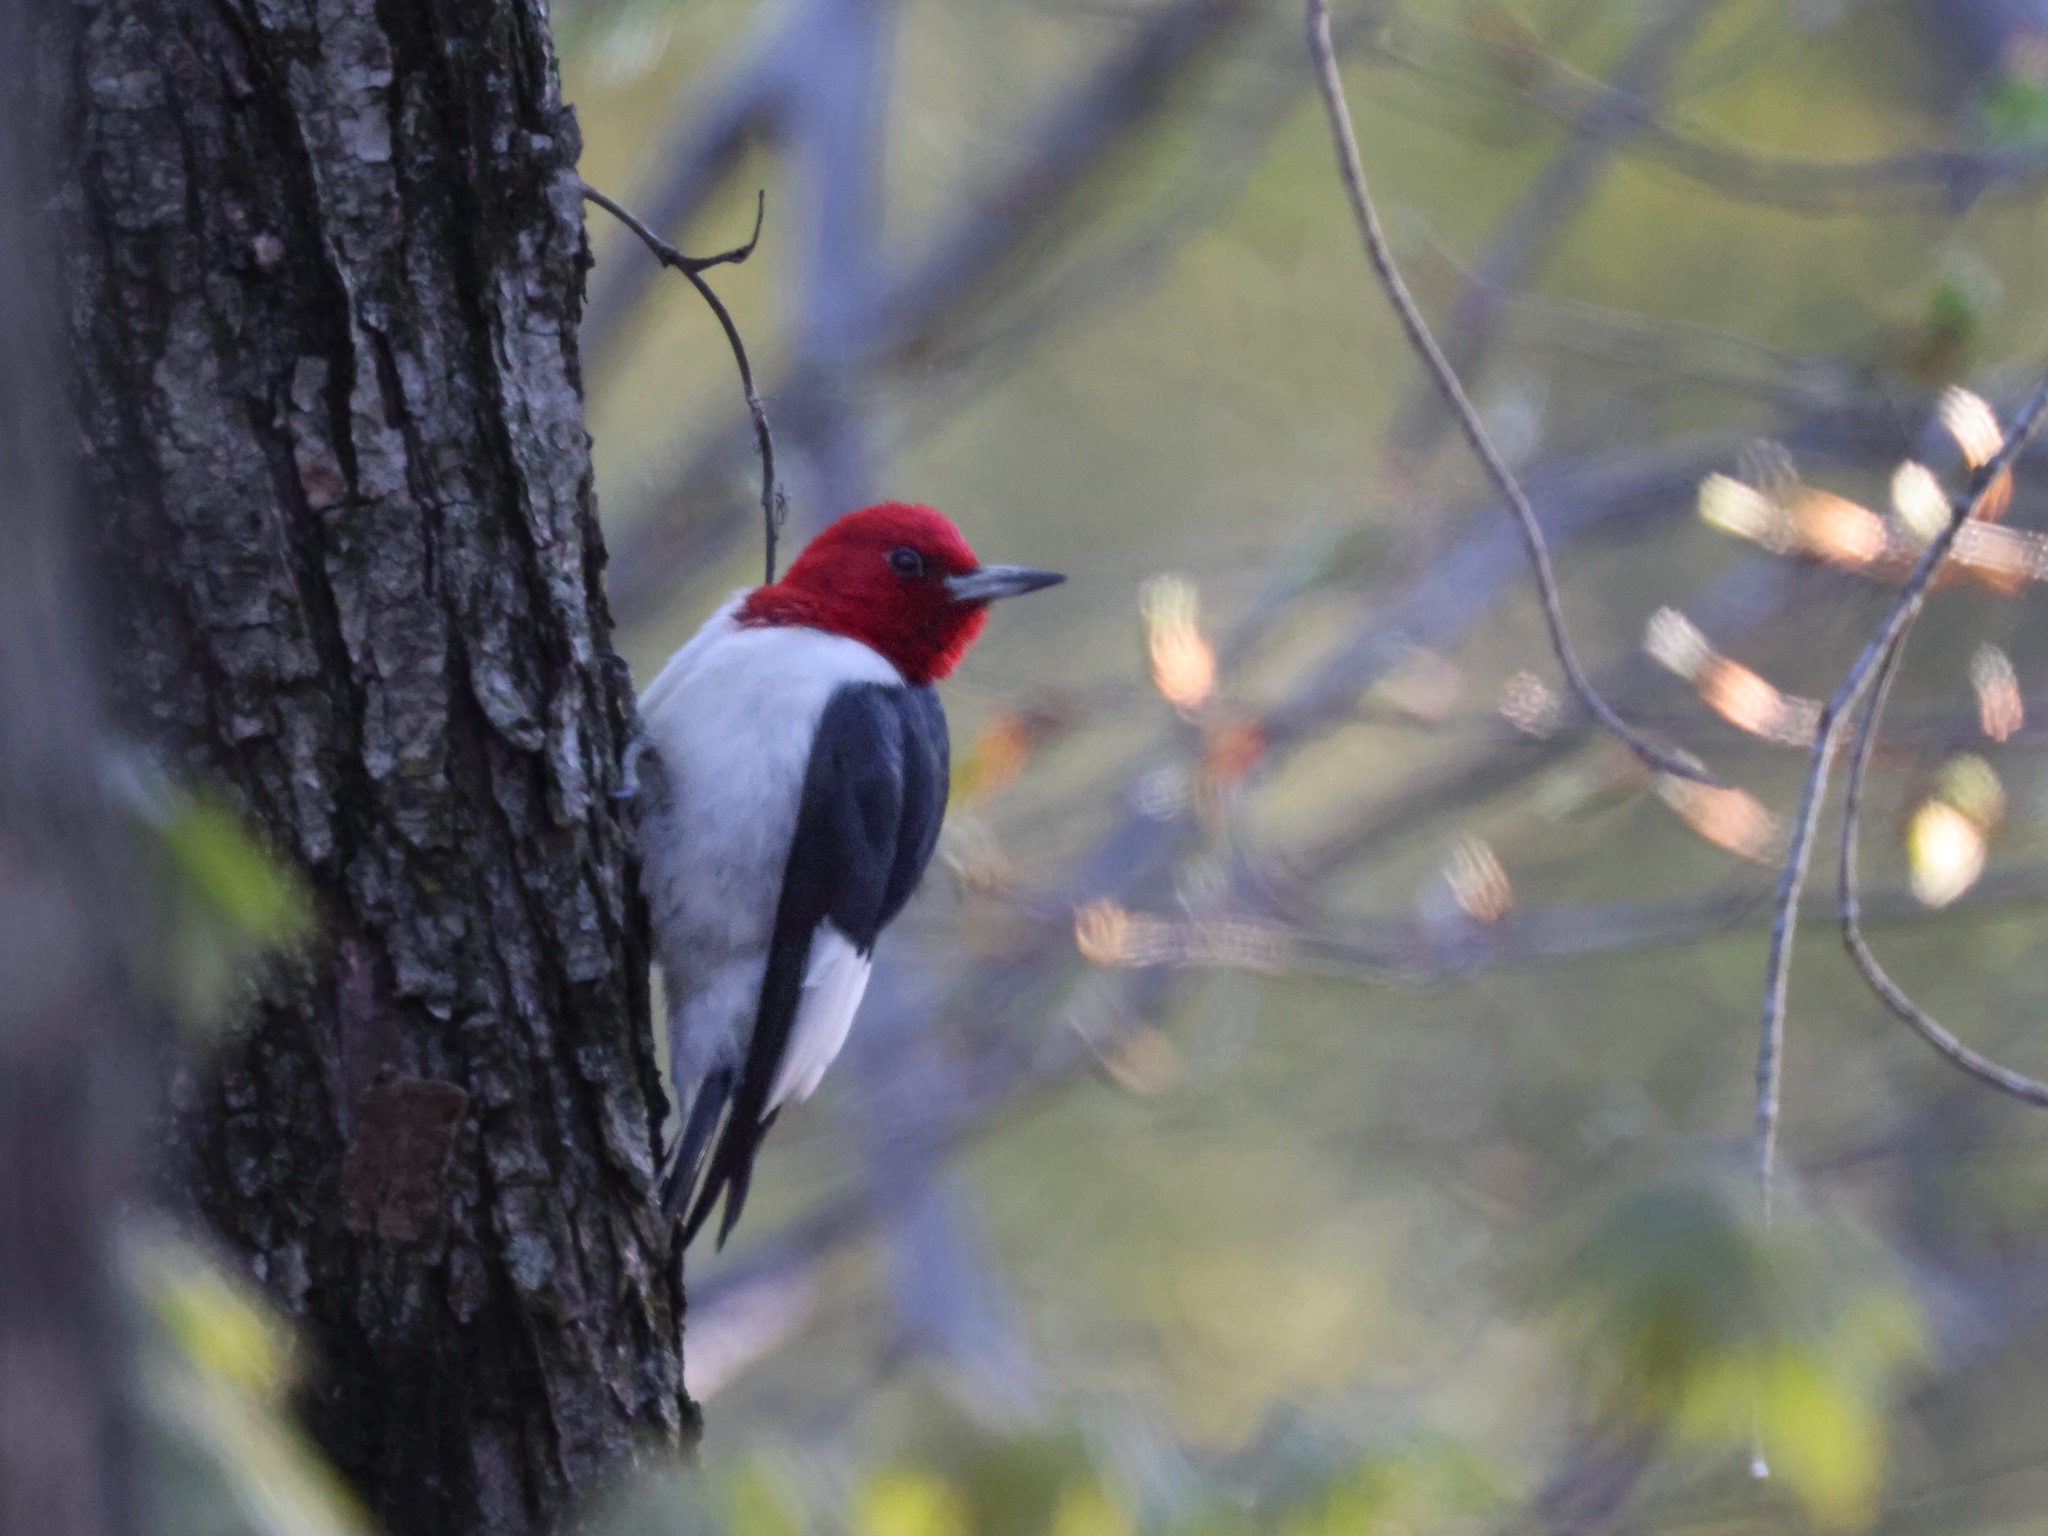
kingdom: Animalia
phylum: Chordata
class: Aves
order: Piciformes
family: Picidae
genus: Melanerpes
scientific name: Melanerpes erythrocephalus
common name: Red-headed woodpecker
